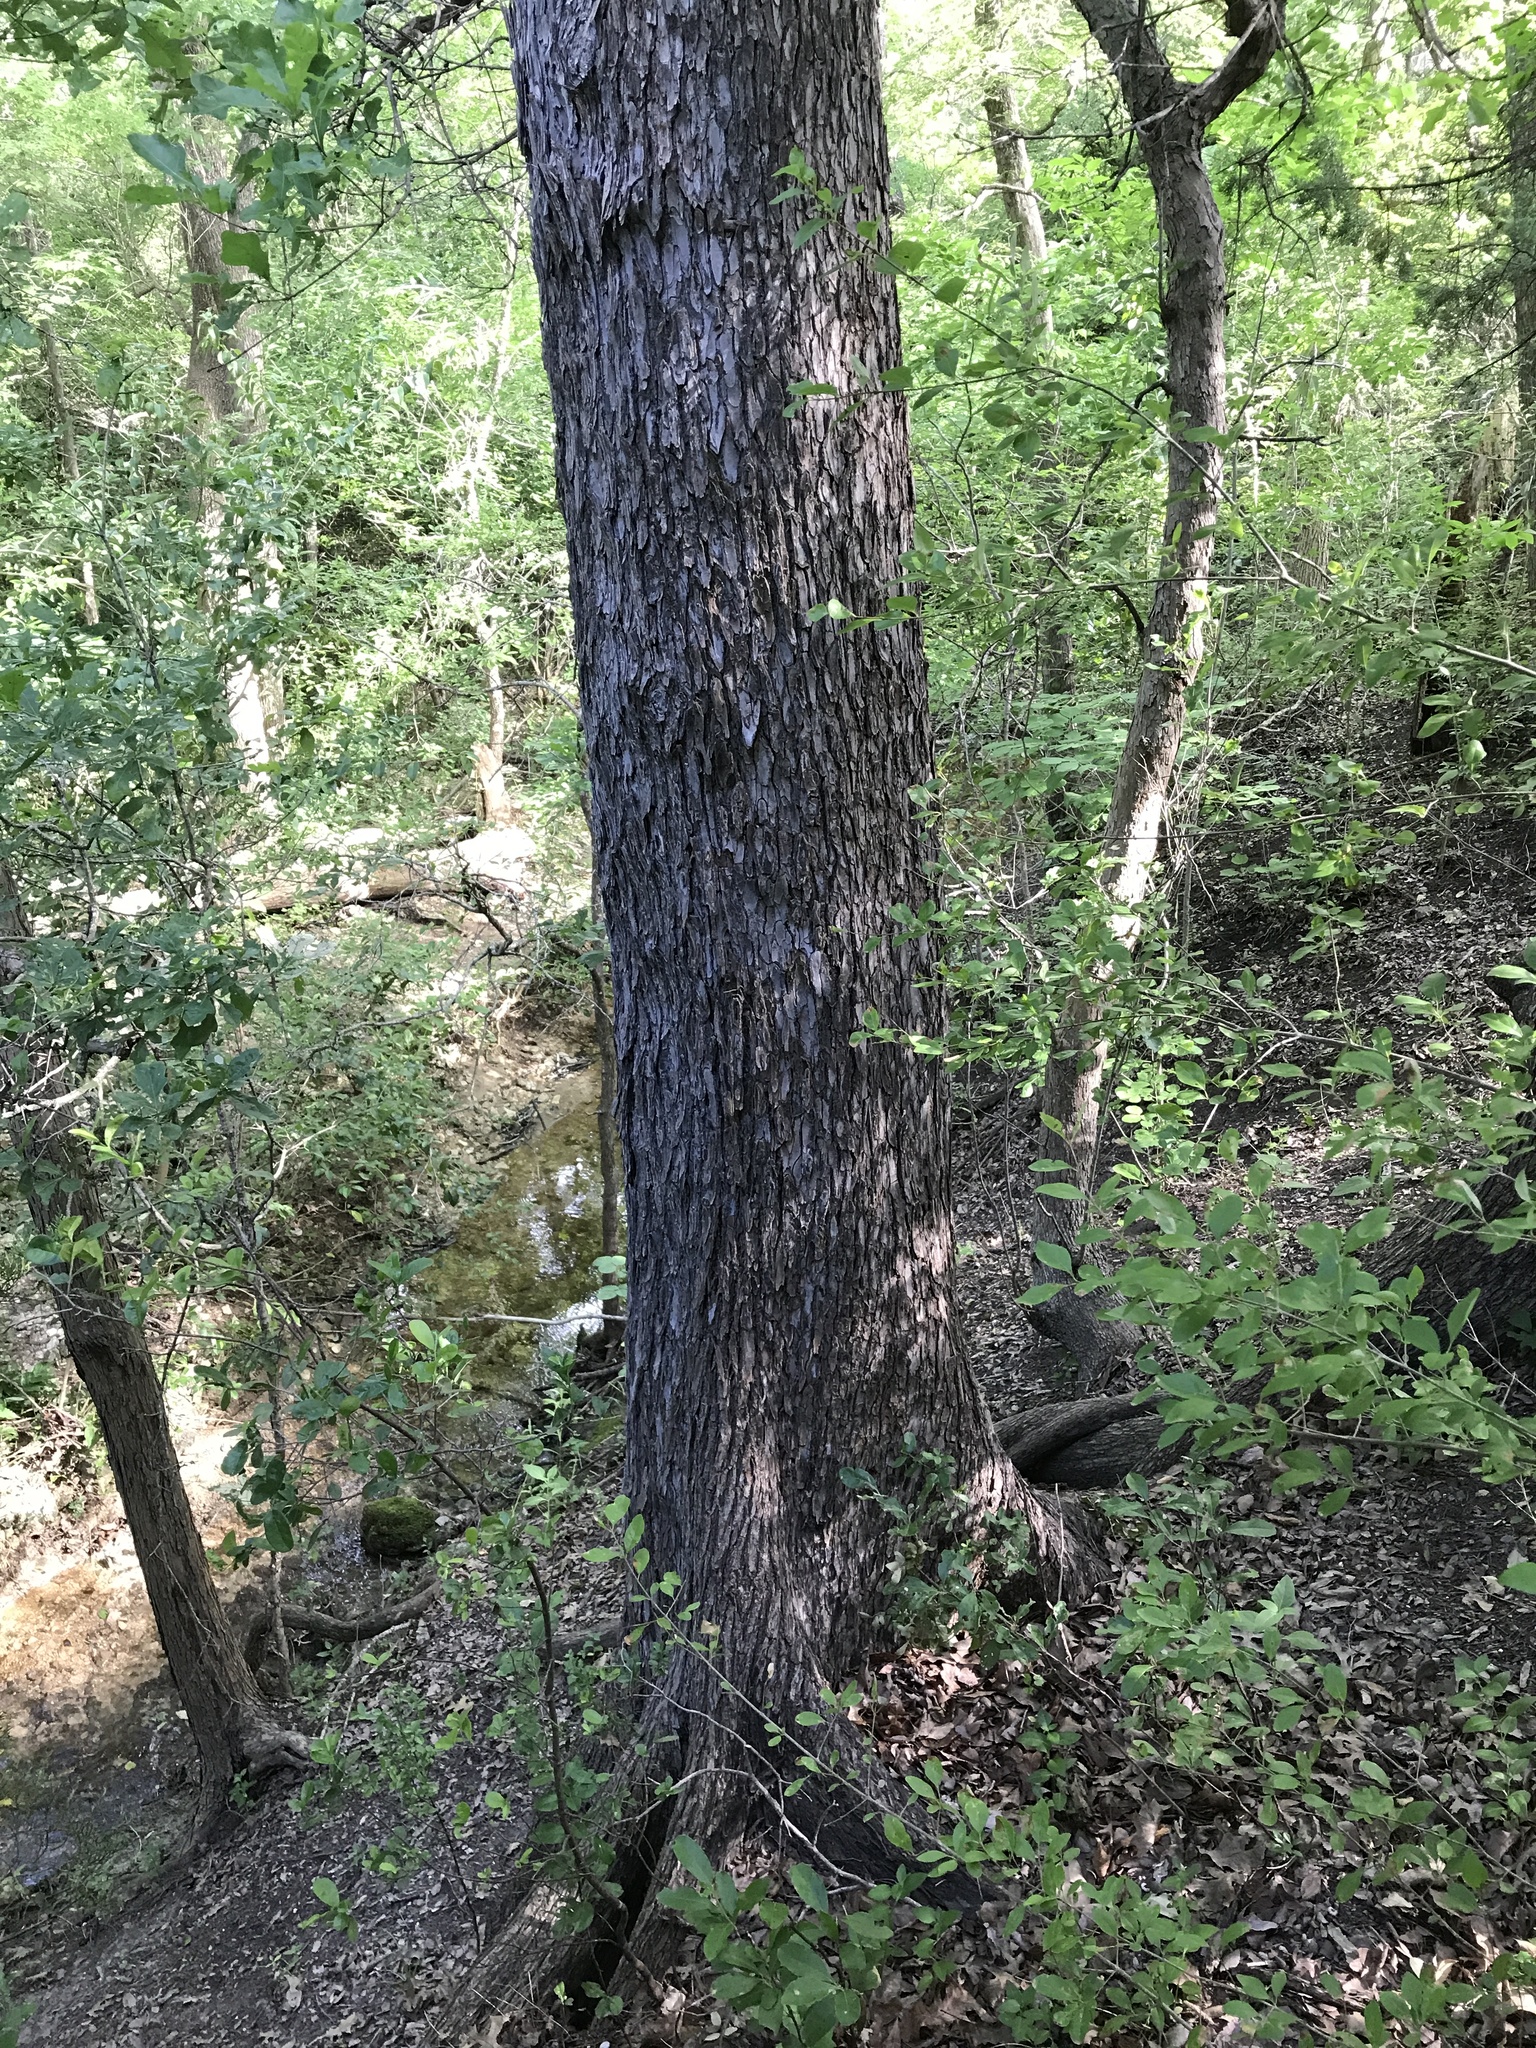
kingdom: Plantae
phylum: Tracheophyta
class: Magnoliopsida
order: Rosales
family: Ulmaceae
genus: Ulmus
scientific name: Ulmus crassifolia
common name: Basket elm
